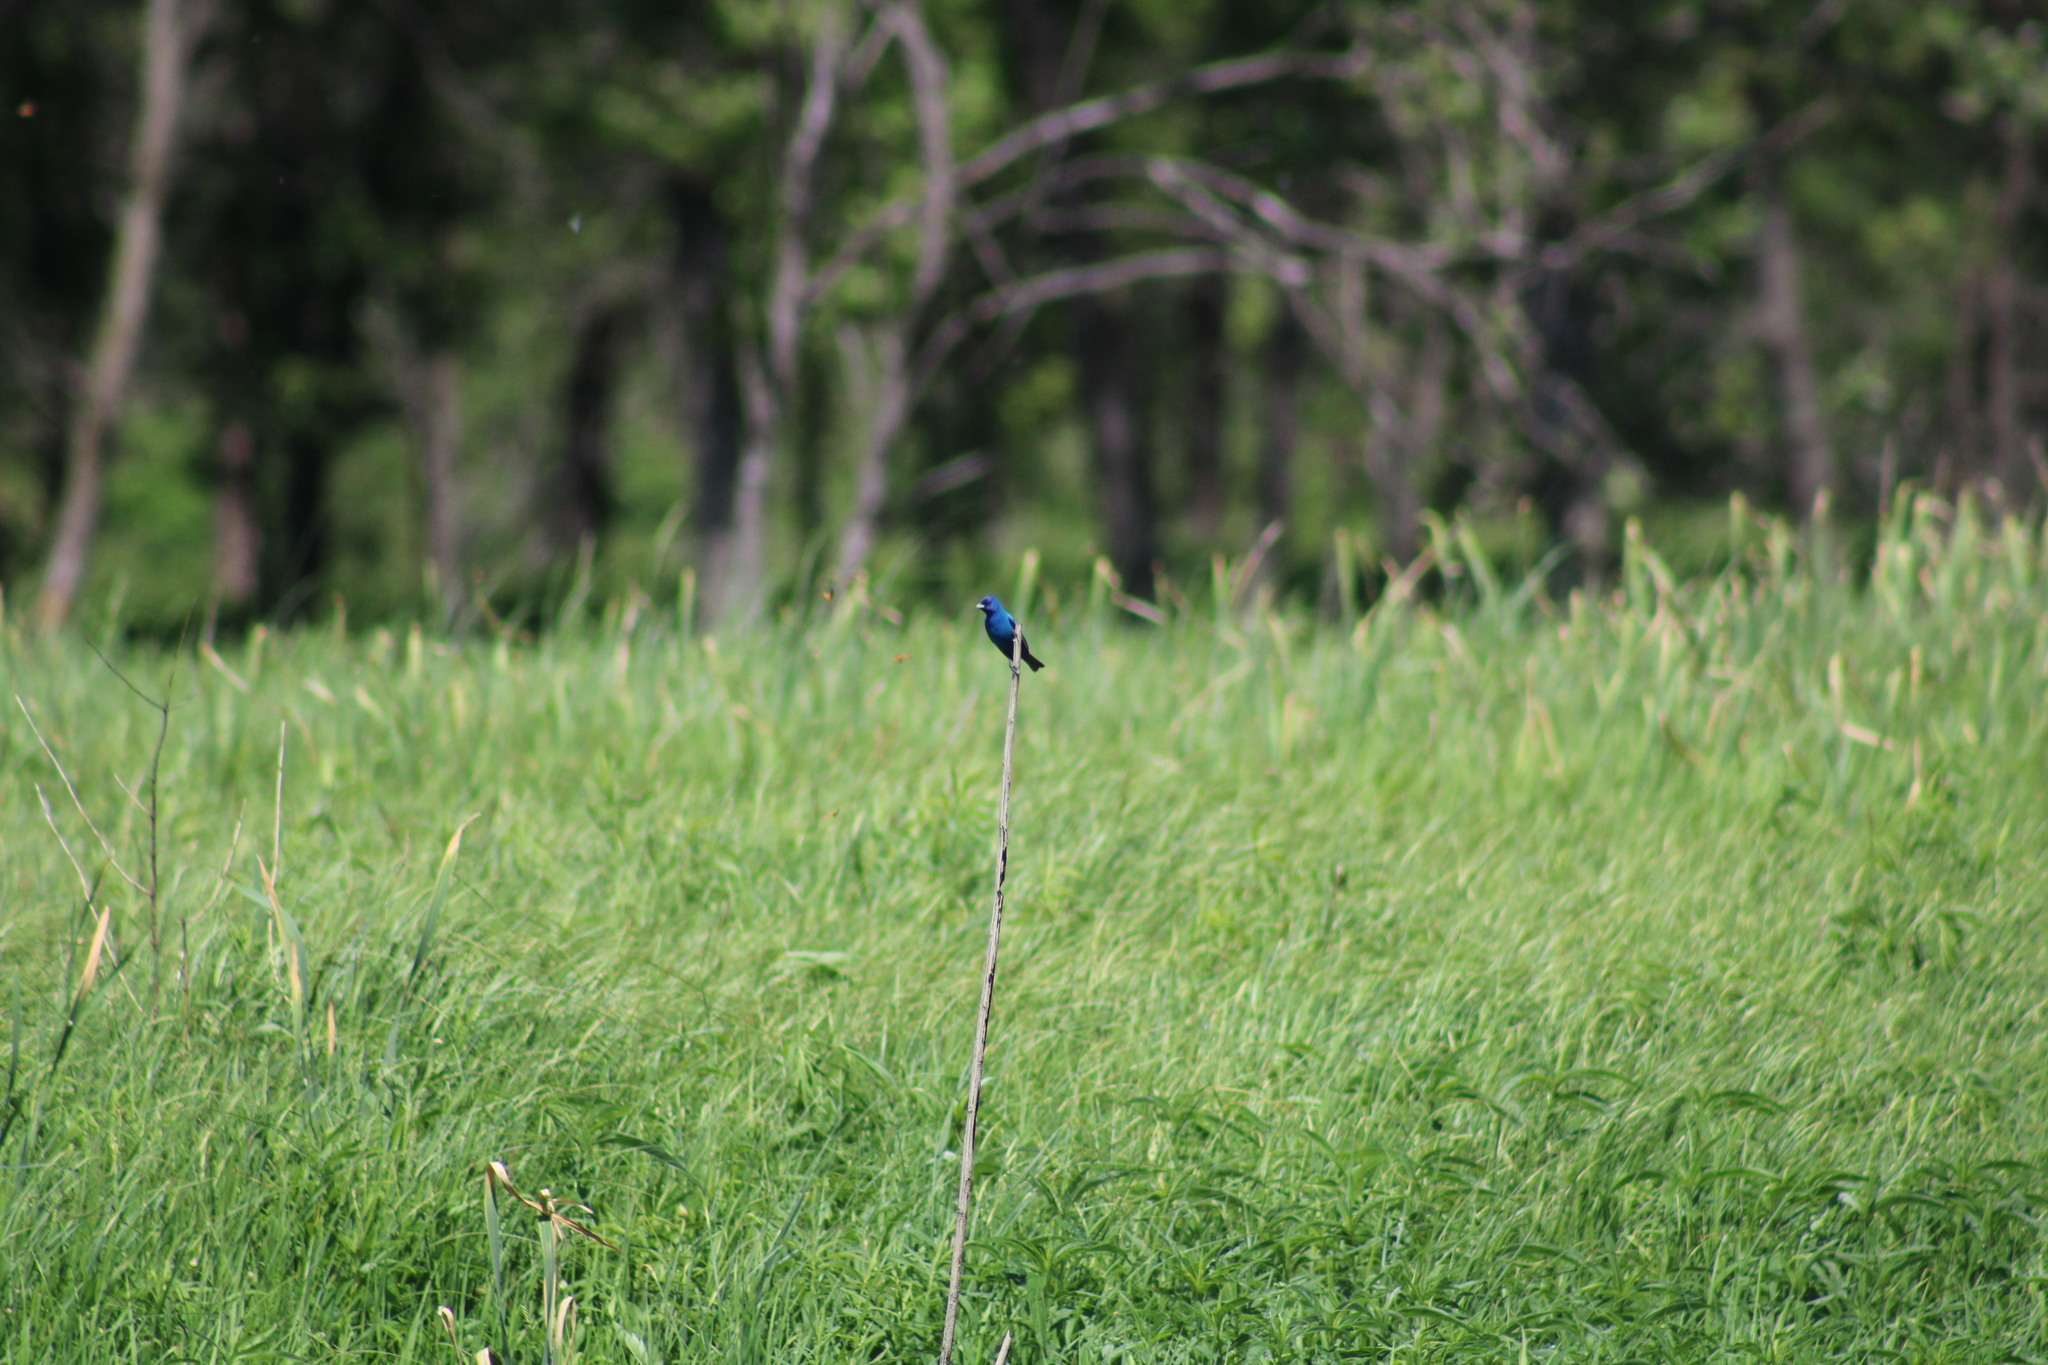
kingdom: Animalia
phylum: Chordata
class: Aves
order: Passeriformes
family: Cardinalidae
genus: Passerina
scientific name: Passerina cyanea
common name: Indigo bunting
